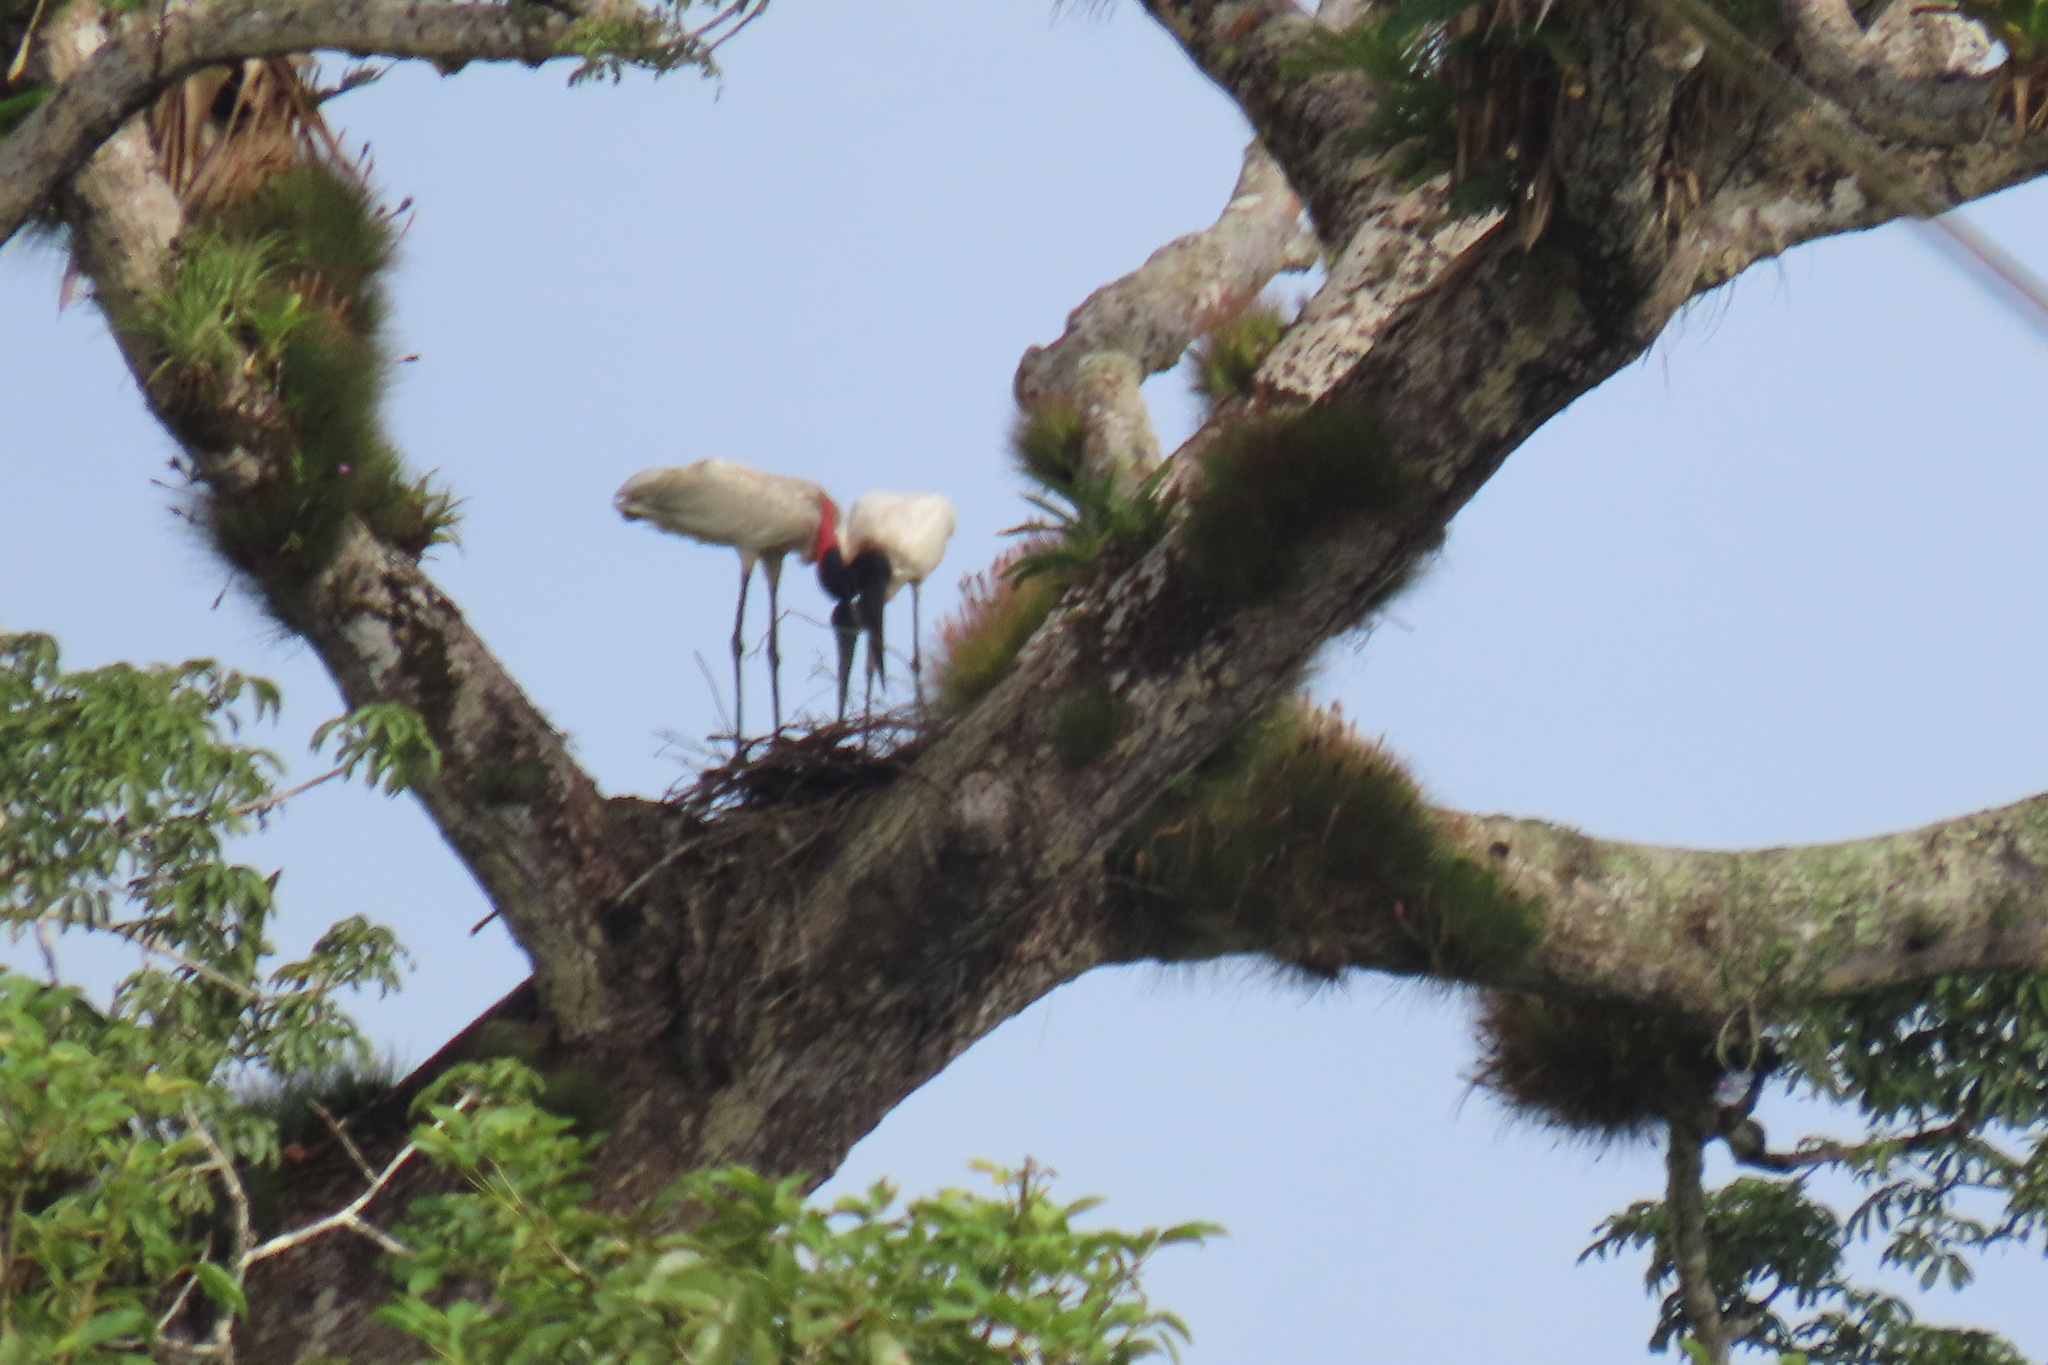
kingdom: Animalia
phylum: Chordata
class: Aves
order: Ciconiiformes
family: Ciconiidae
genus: Jabiru
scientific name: Jabiru mycteria
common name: Jabiru
